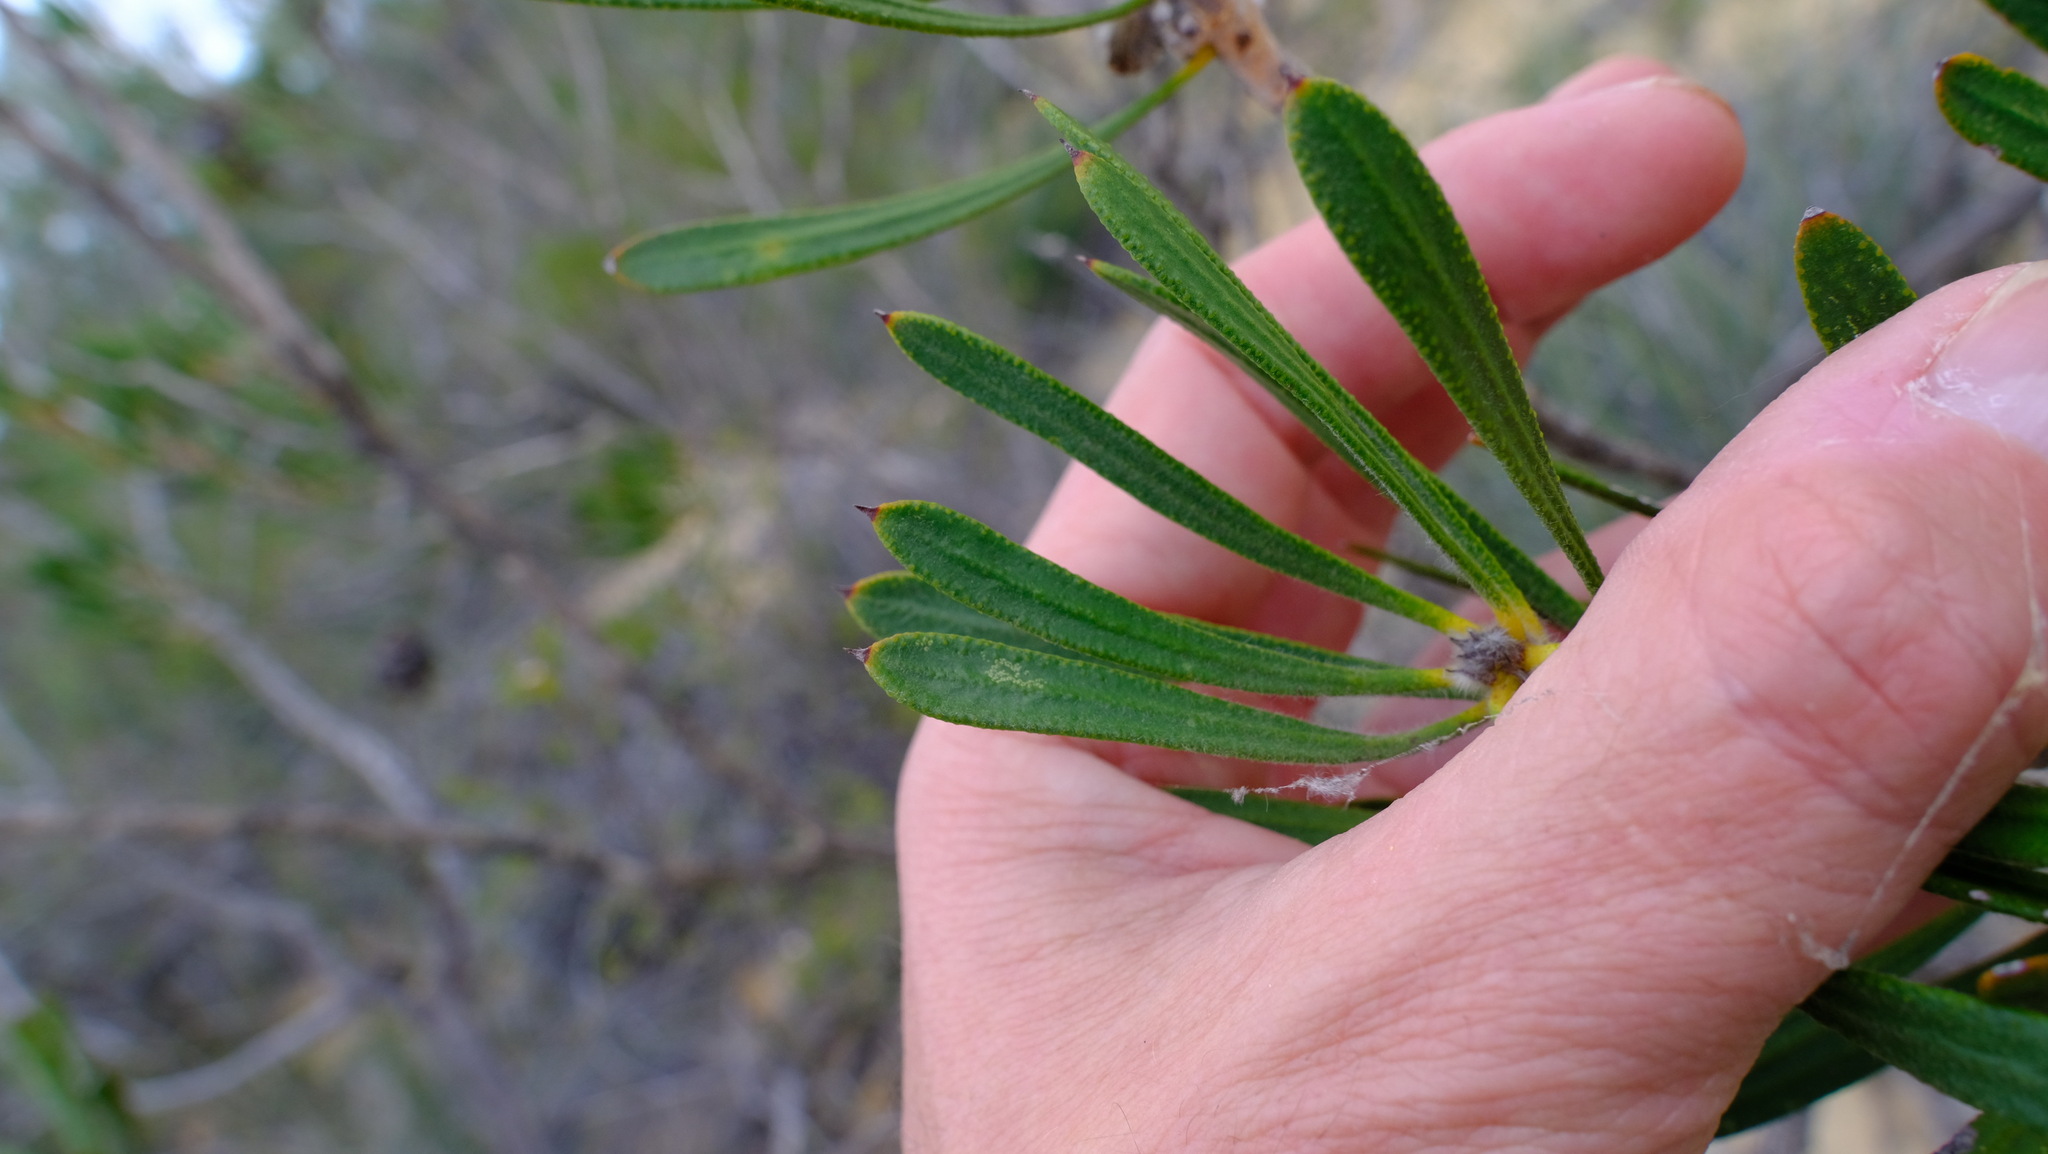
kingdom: Plantae
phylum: Tracheophyta
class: Magnoliopsida
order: Myrtales
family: Myrtaceae
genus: Melaleuca
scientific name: Melaleuca blepharosperma
